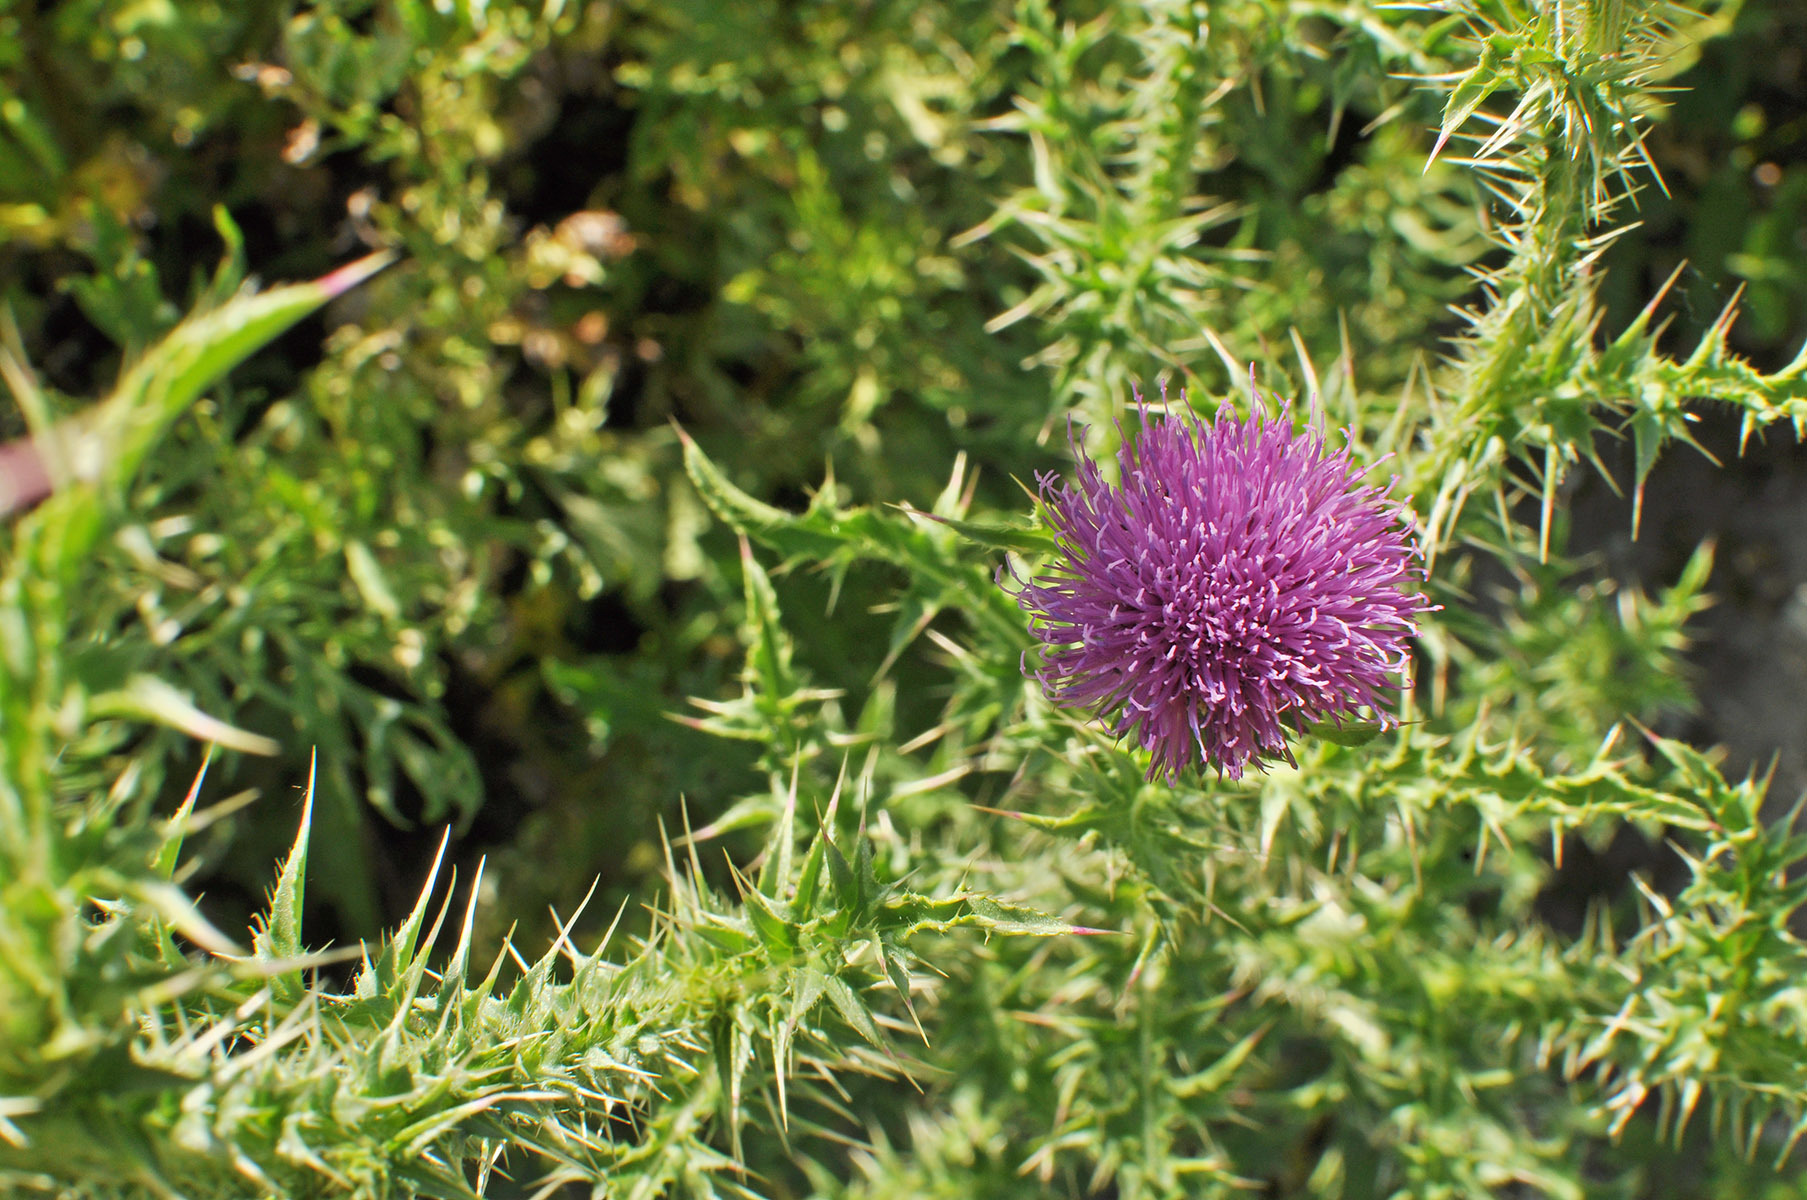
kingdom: Plantae
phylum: Tracheophyta
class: Magnoliopsida
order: Asterales
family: Asteraceae
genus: Carduus
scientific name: Carduus acanthoides
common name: Plumeless thistle
